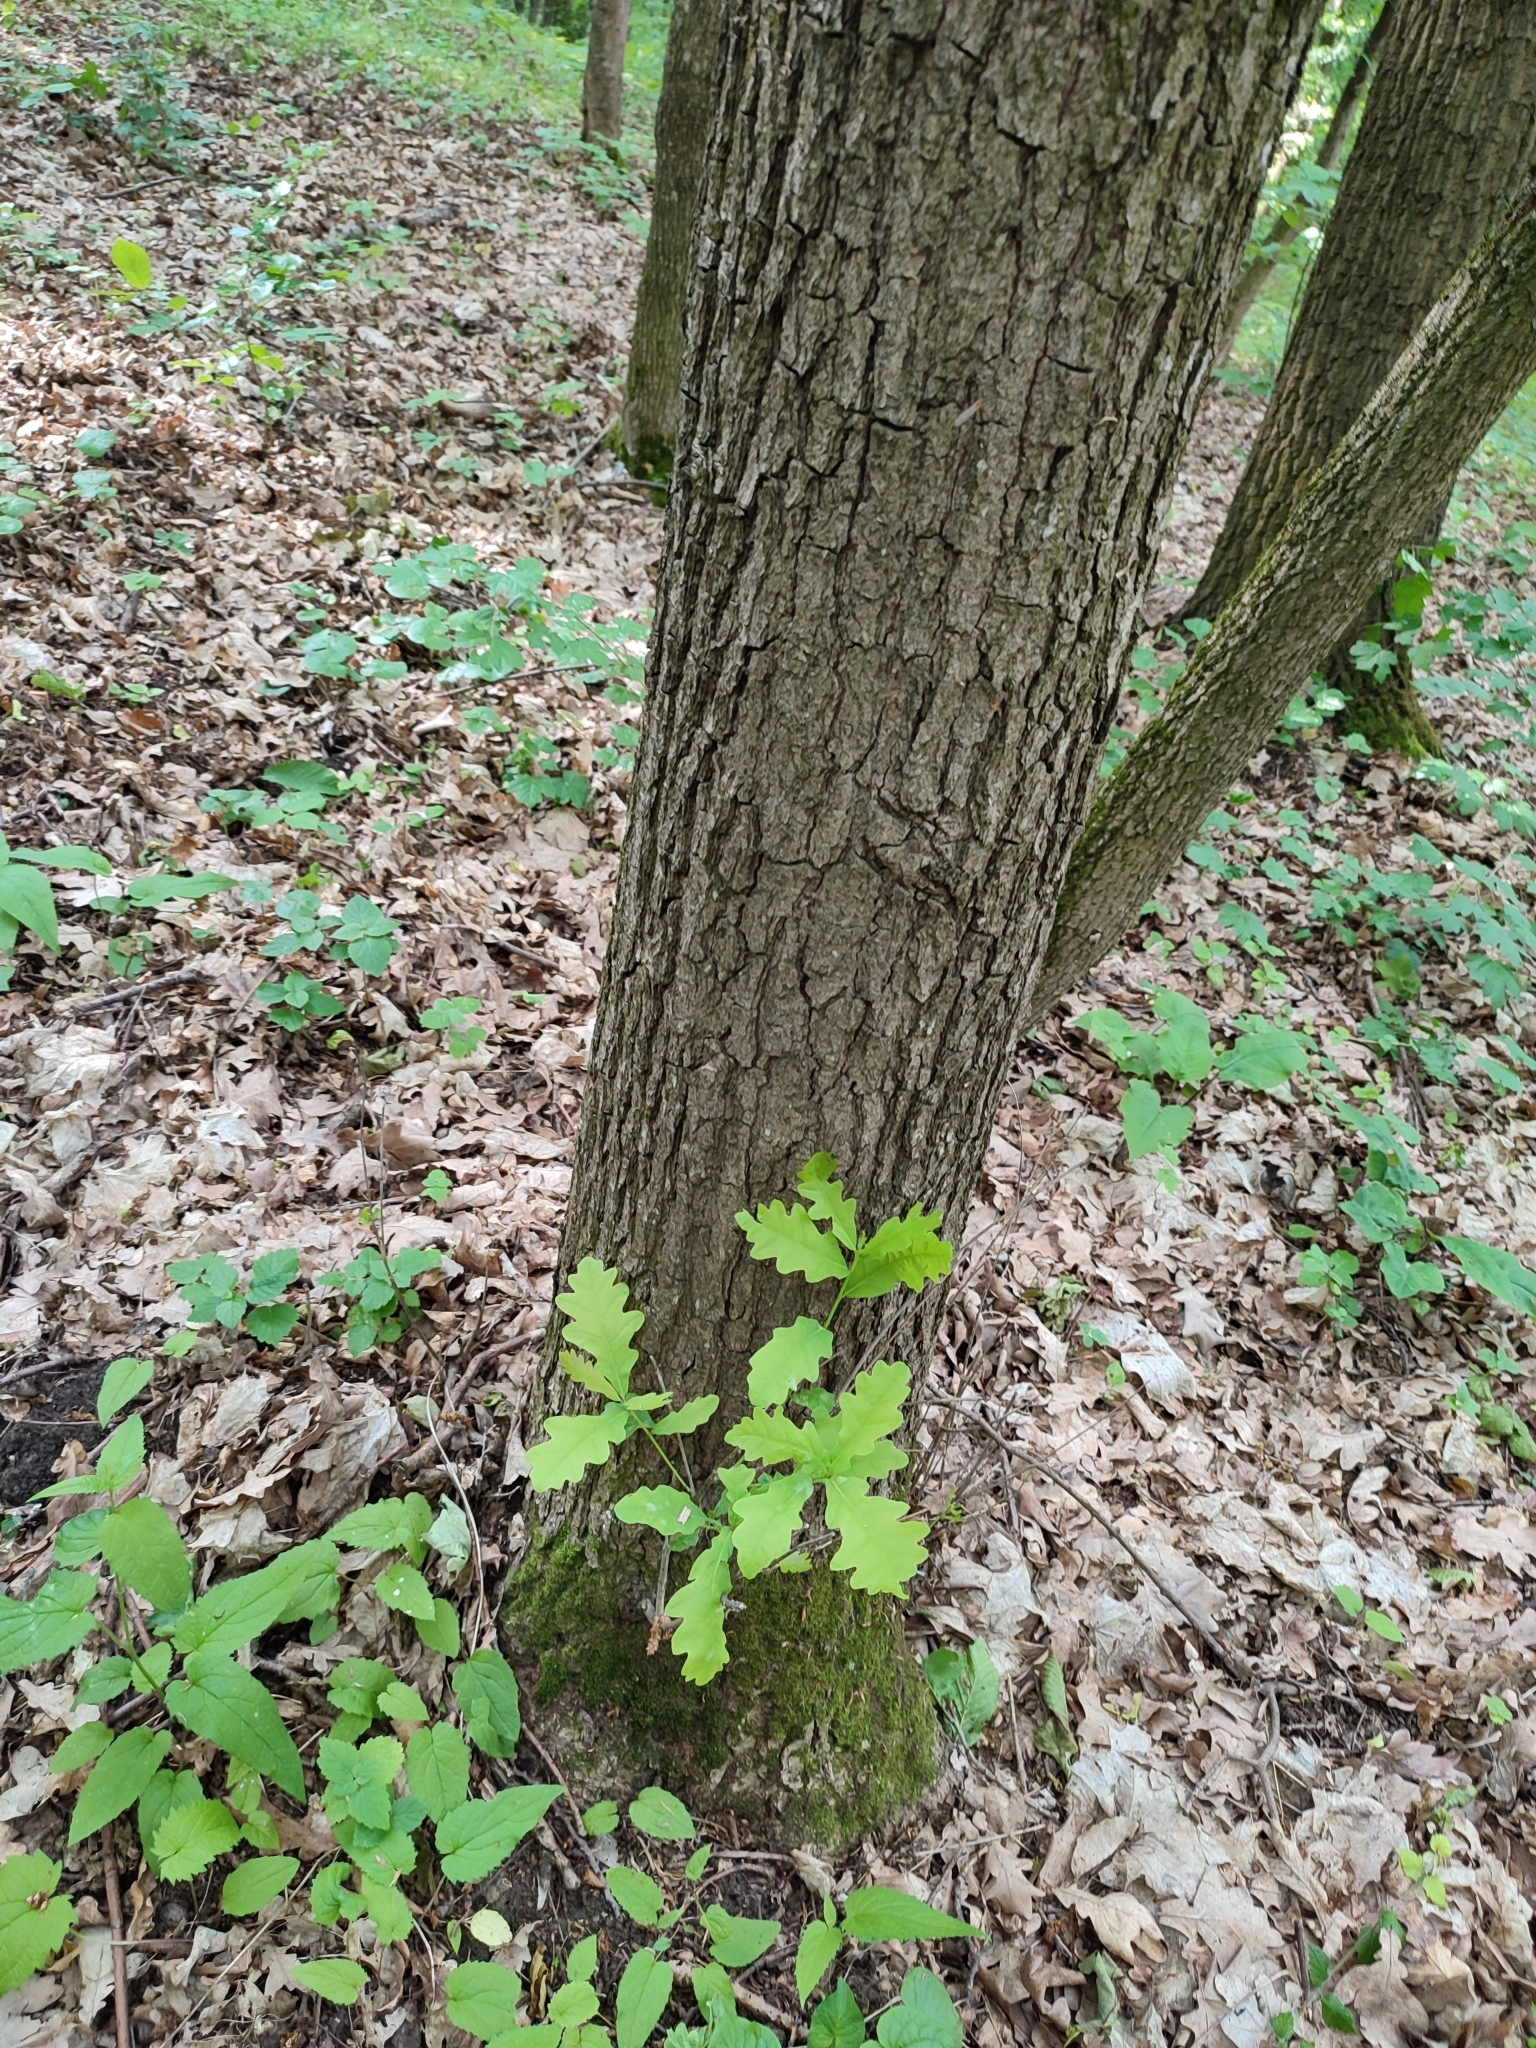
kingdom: Plantae
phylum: Tracheophyta
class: Magnoliopsida
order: Fagales
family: Fagaceae
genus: Quercus
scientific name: Quercus robur
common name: Pedunculate oak
